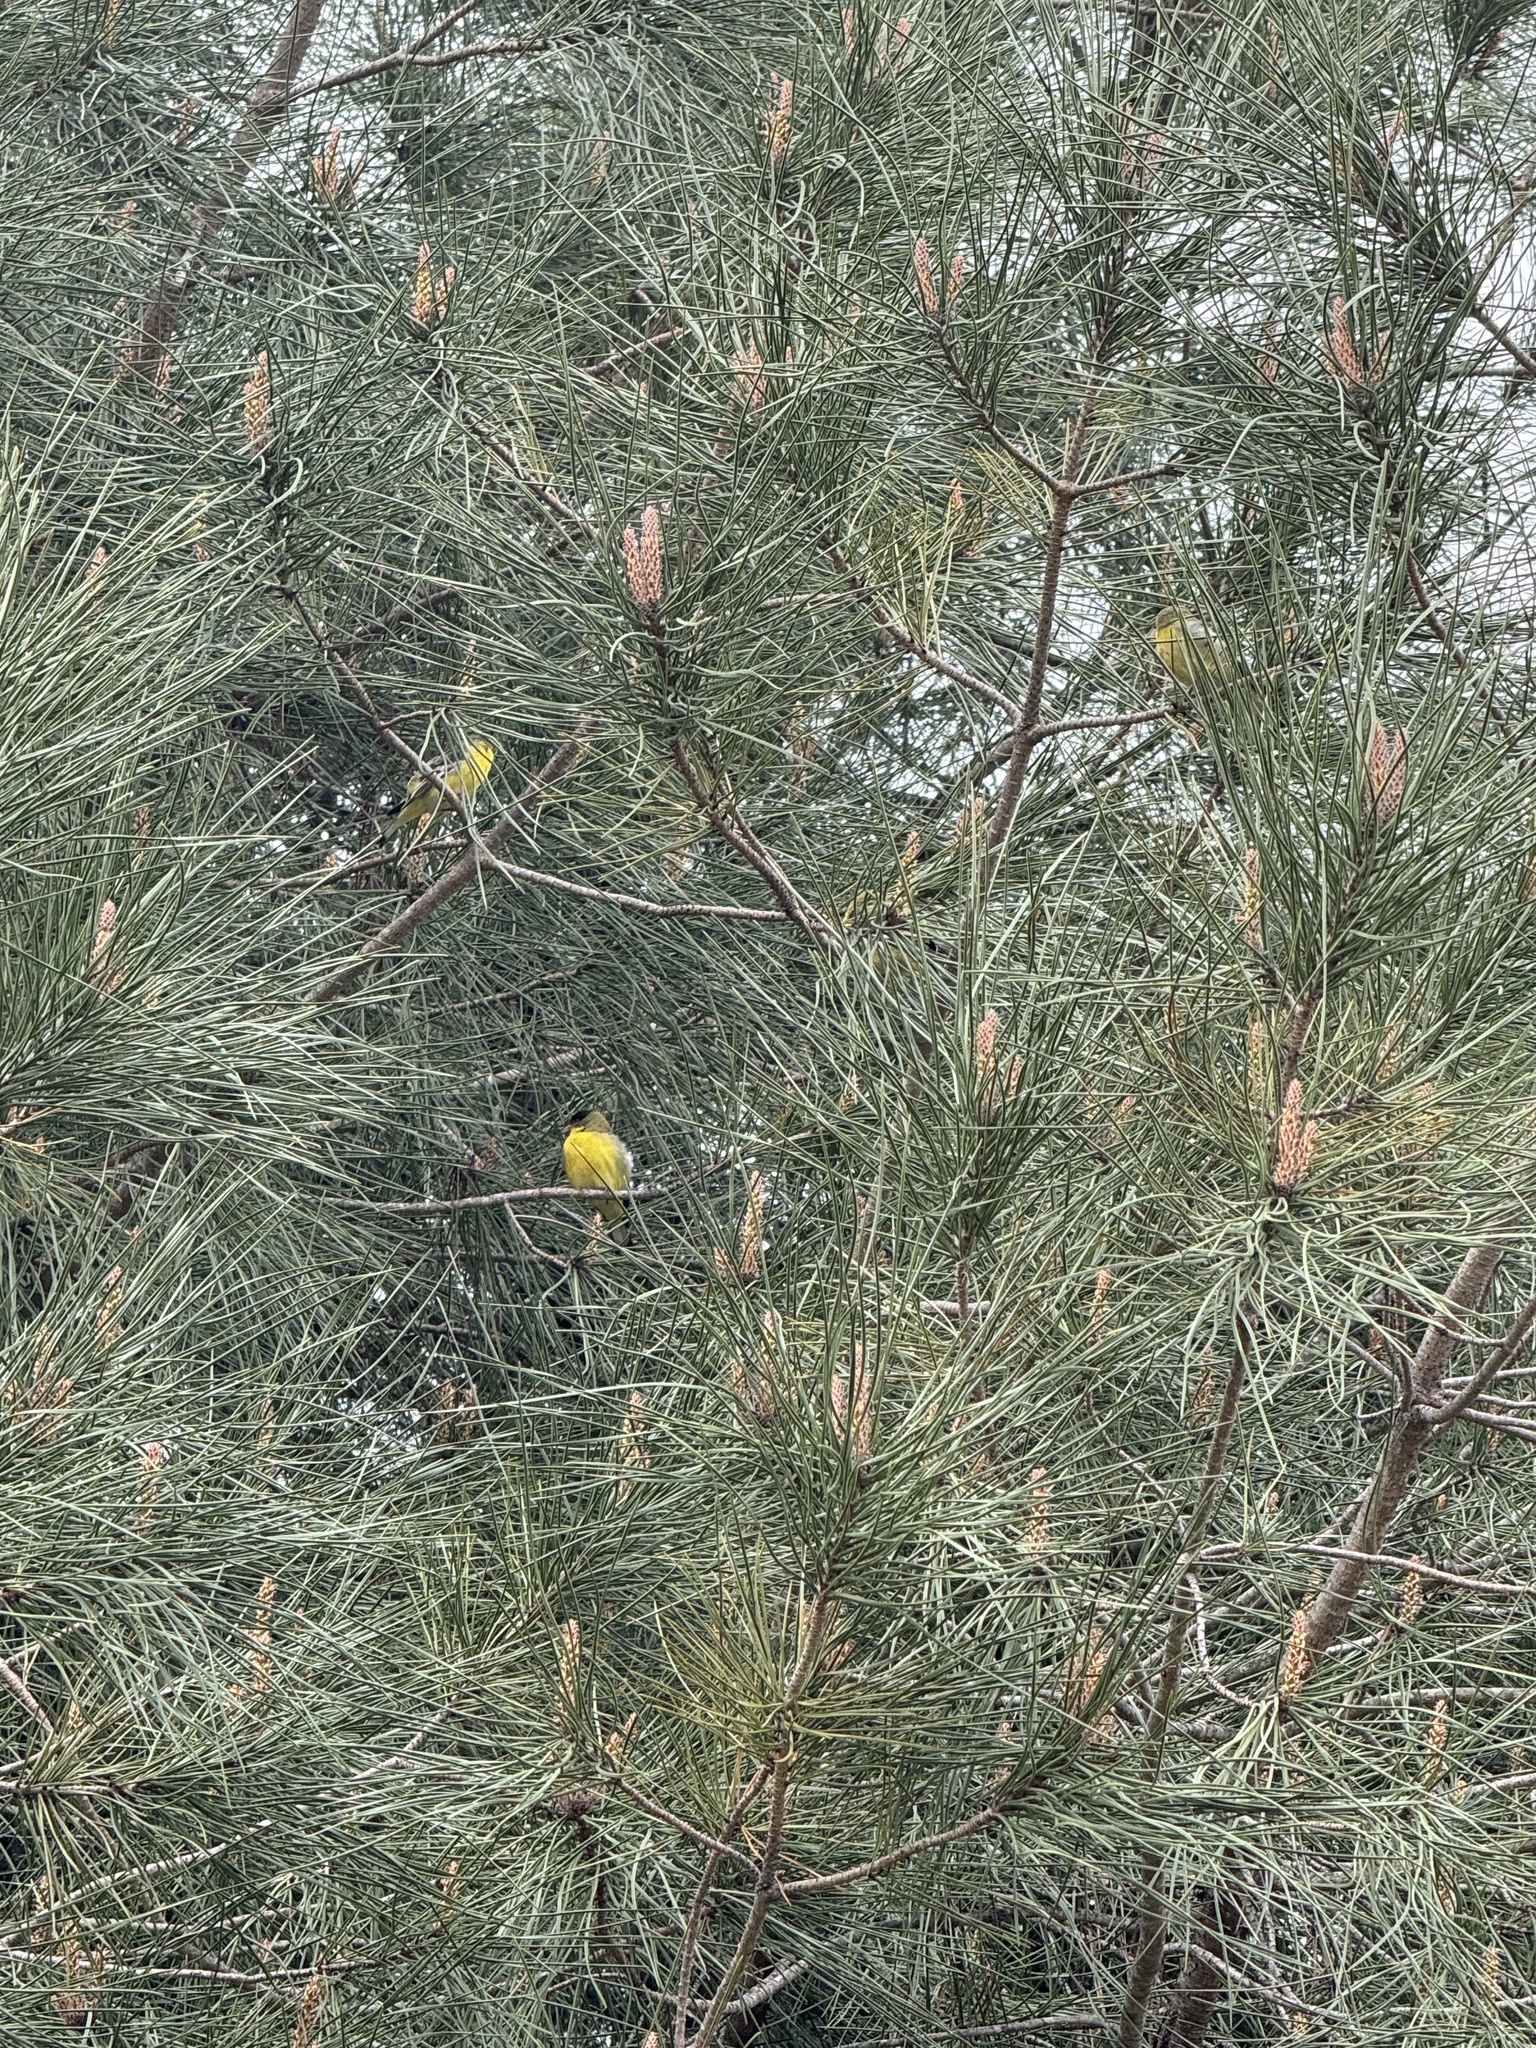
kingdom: Animalia
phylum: Chordata
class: Aves
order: Passeriformes
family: Fringillidae
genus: Spinus
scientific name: Spinus psaltria
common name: Lesser goldfinch
